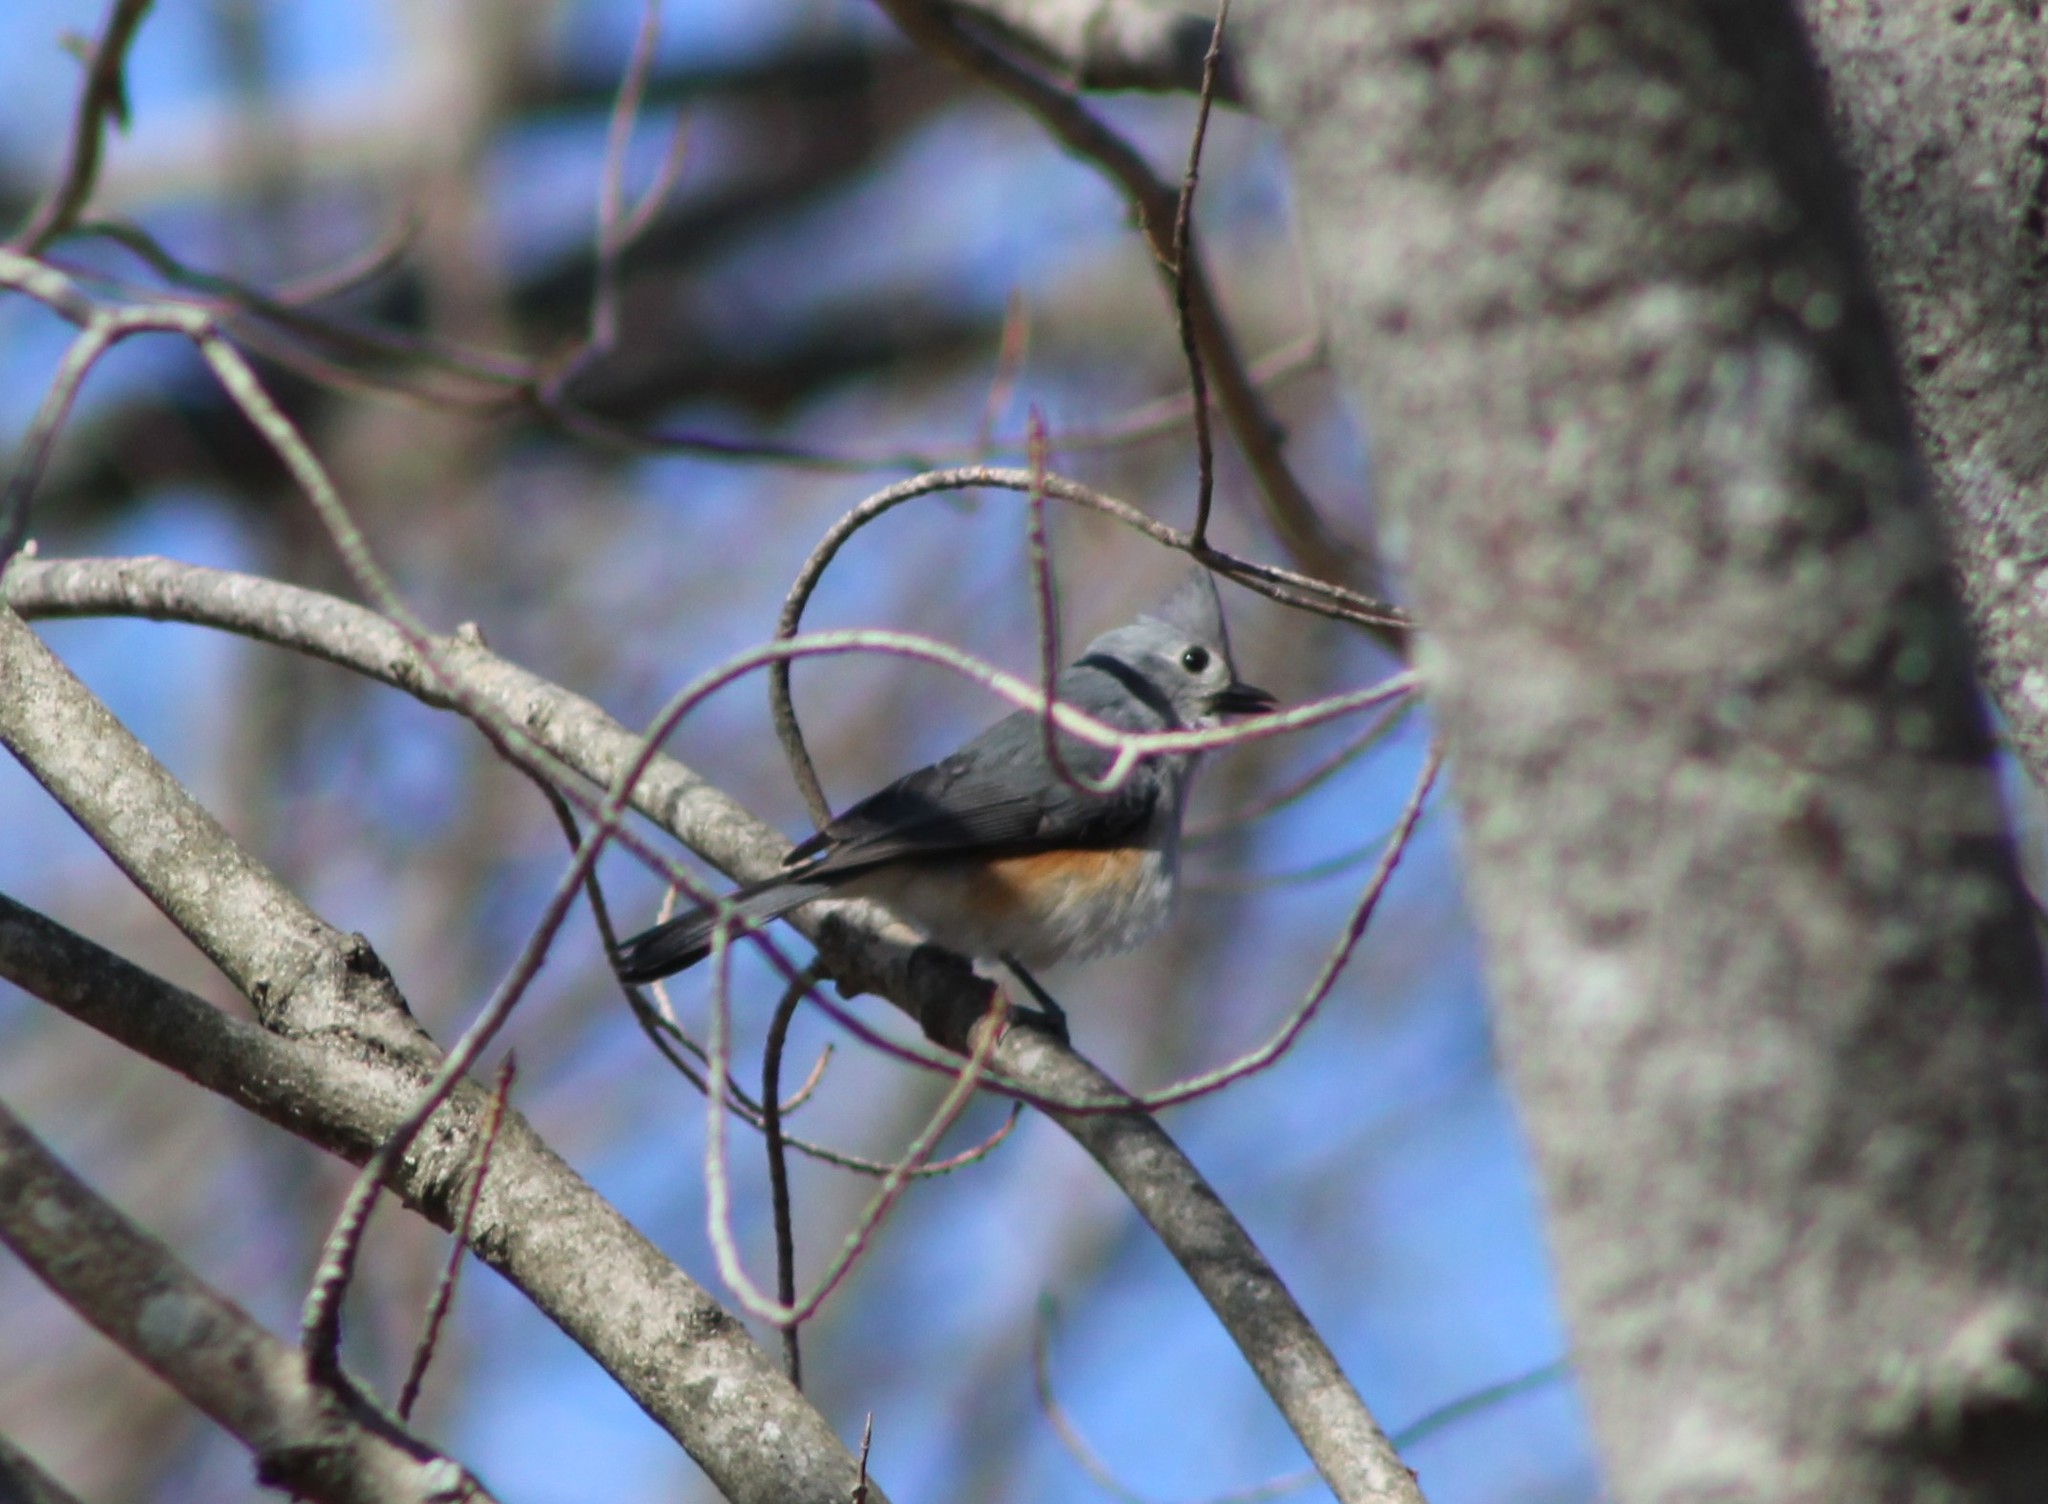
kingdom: Animalia
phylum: Chordata
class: Aves
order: Passeriformes
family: Paridae
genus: Baeolophus
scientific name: Baeolophus bicolor
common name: Tufted titmouse
